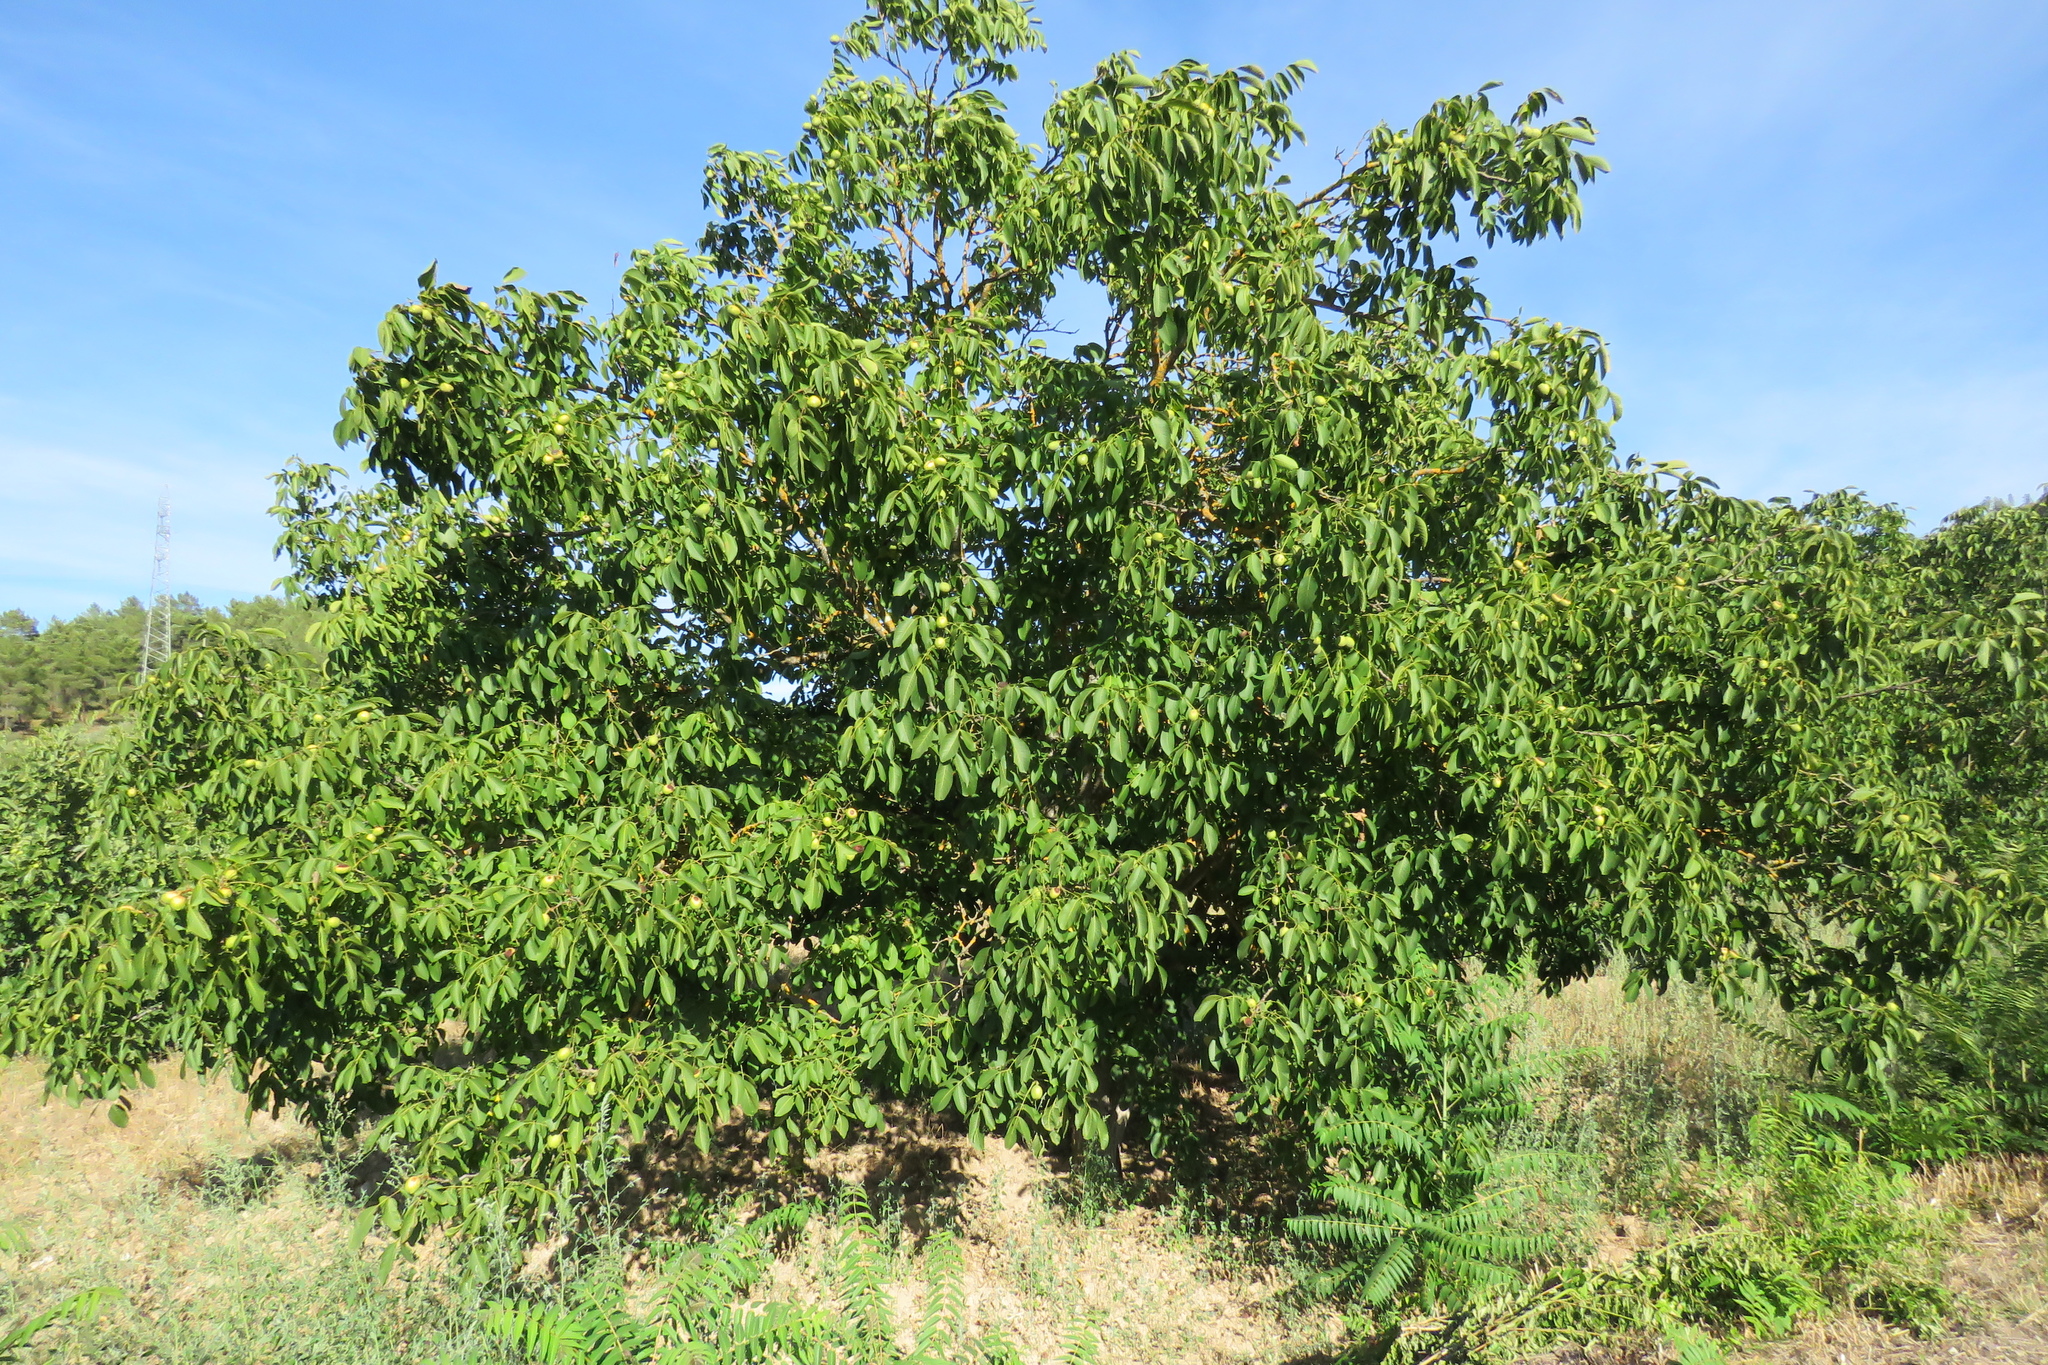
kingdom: Plantae
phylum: Tracheophyta
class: Magnoliopsida
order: Fagales
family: Juglandaceae
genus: Juglans
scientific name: Juglans regia
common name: Walnut
